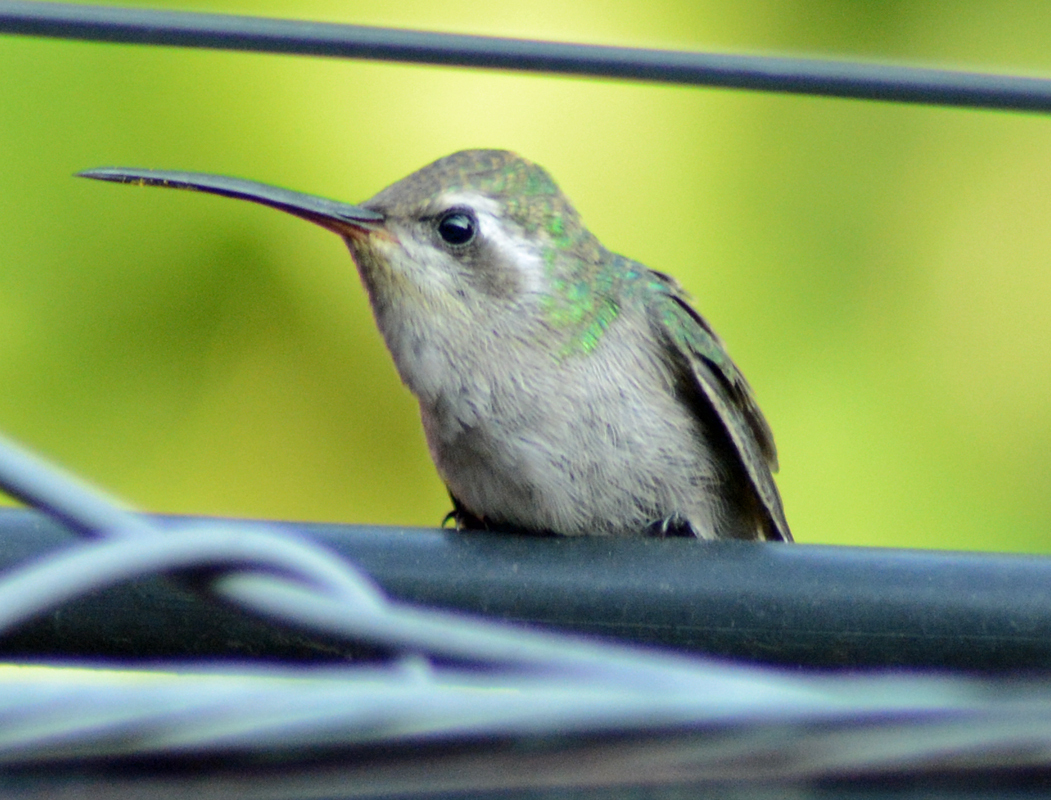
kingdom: Animalia
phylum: Chordata
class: Aves
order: Apodiformes
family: Trochilidae
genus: Cynanthus
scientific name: Cynanthus latirostris
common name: Broad-billed hummingbird
